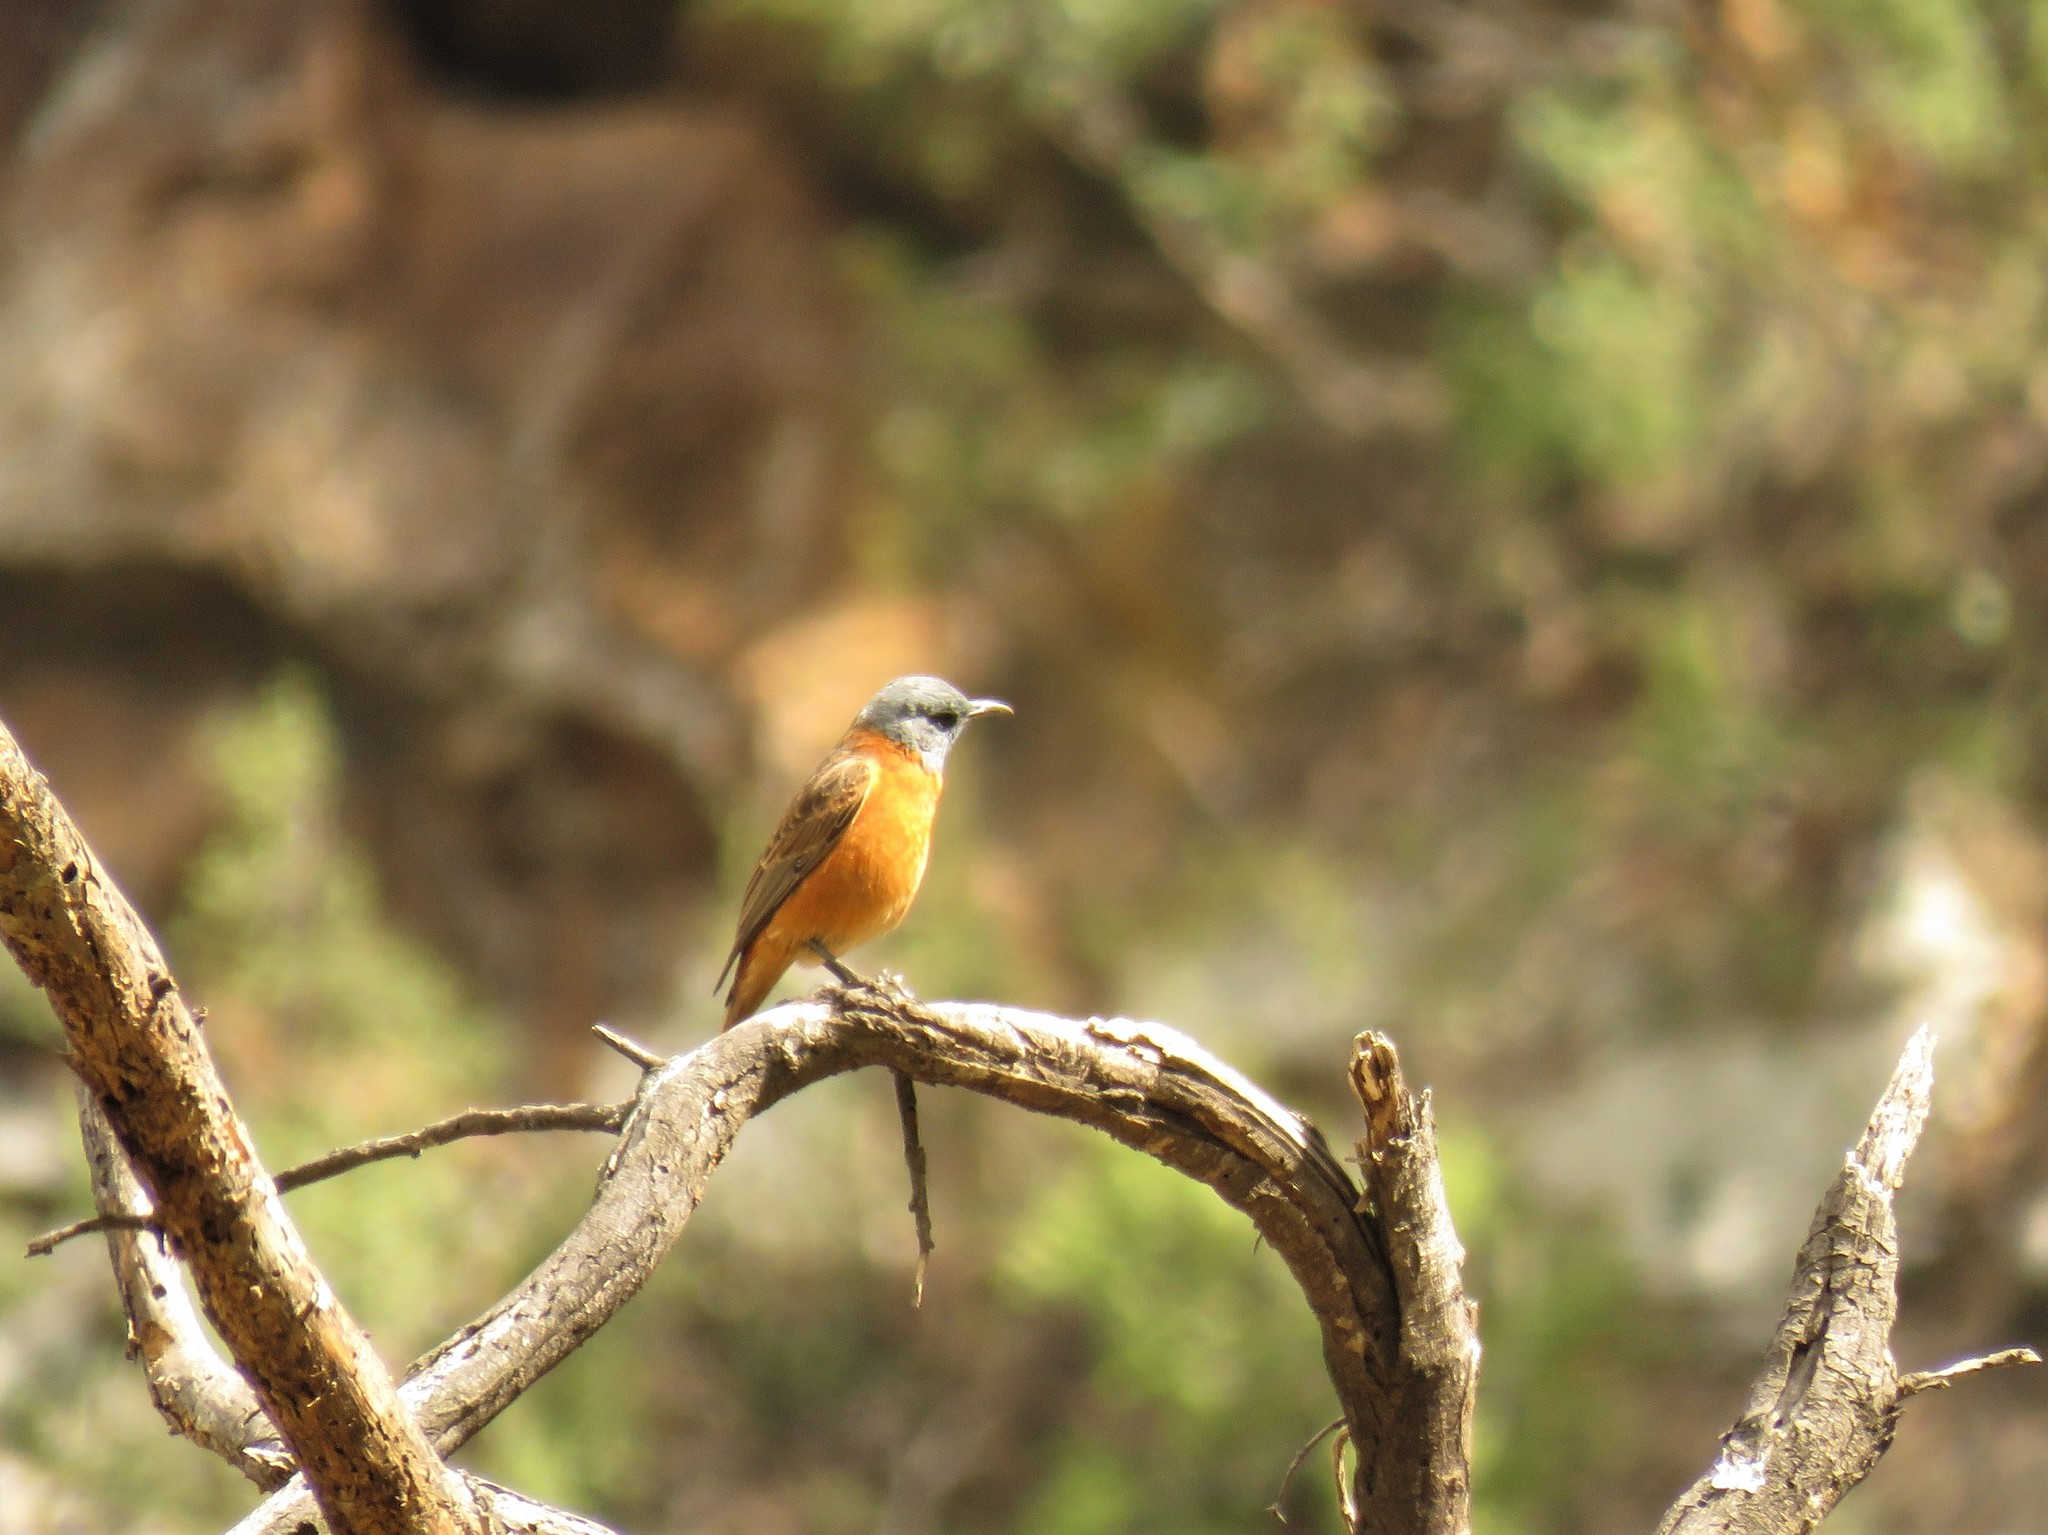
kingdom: Animalia
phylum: Chordata
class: Aves
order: Passeriformes
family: Muscicapidae
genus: Monticola
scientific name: Monticola rupestris
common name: Cape rock thrush
